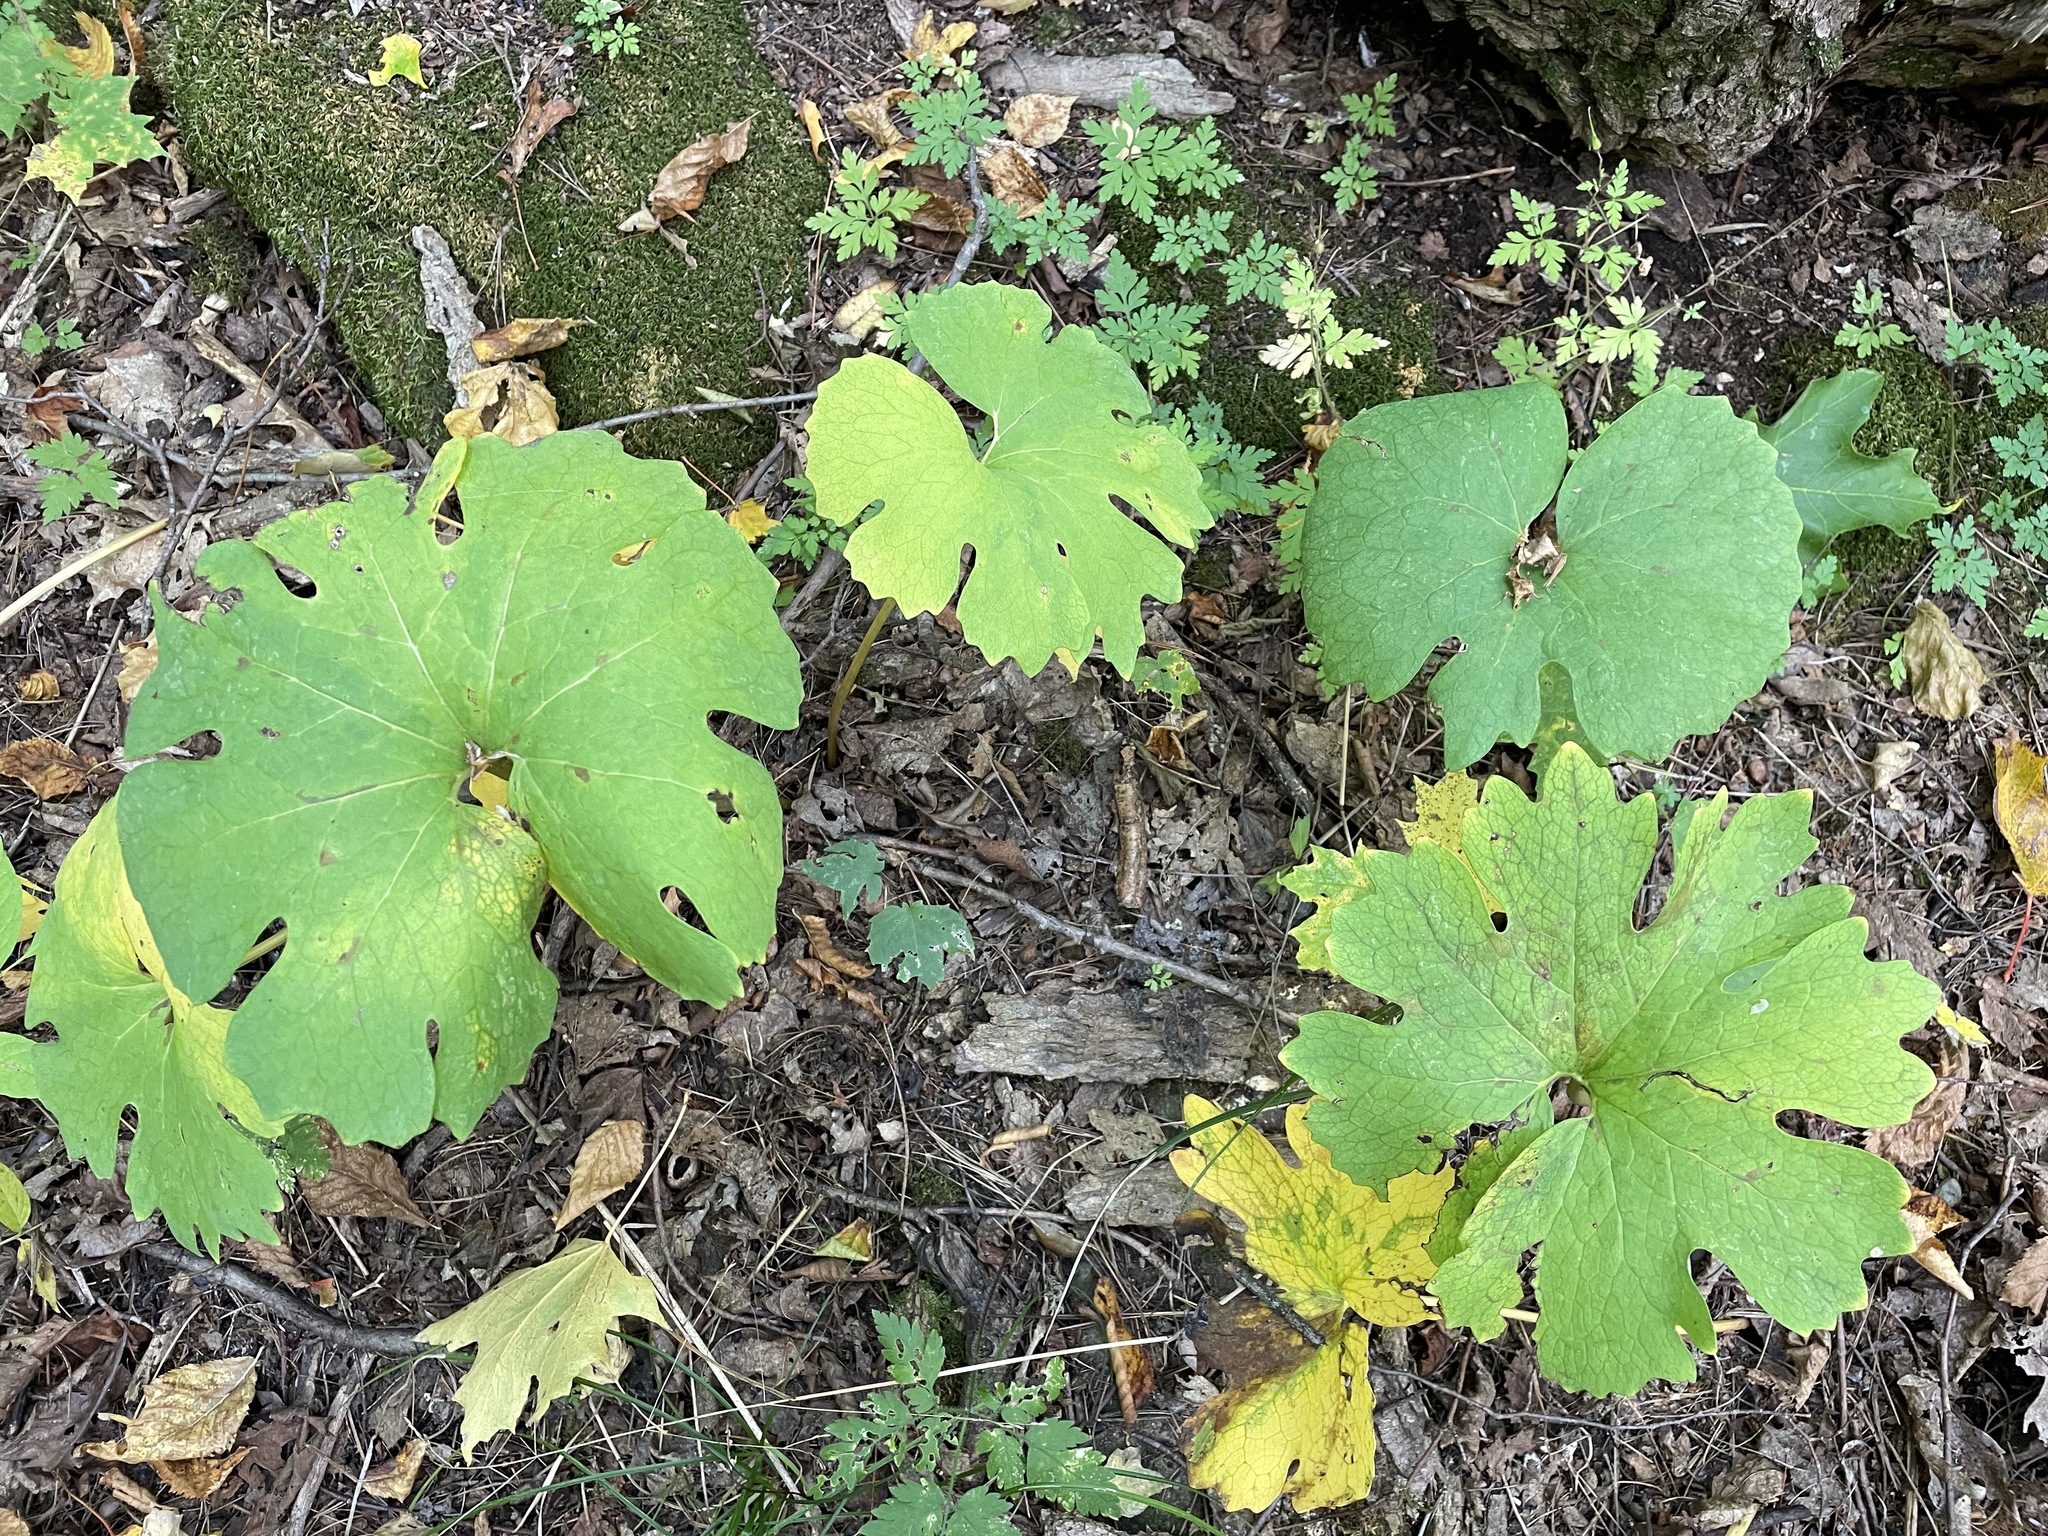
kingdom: Plantae
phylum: Tracheophyta
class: Magnoliopsida
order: Ranunculales
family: Papaveraceae
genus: Sanguinaria
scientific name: Sanguinaria canadensis
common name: Bloodroot
